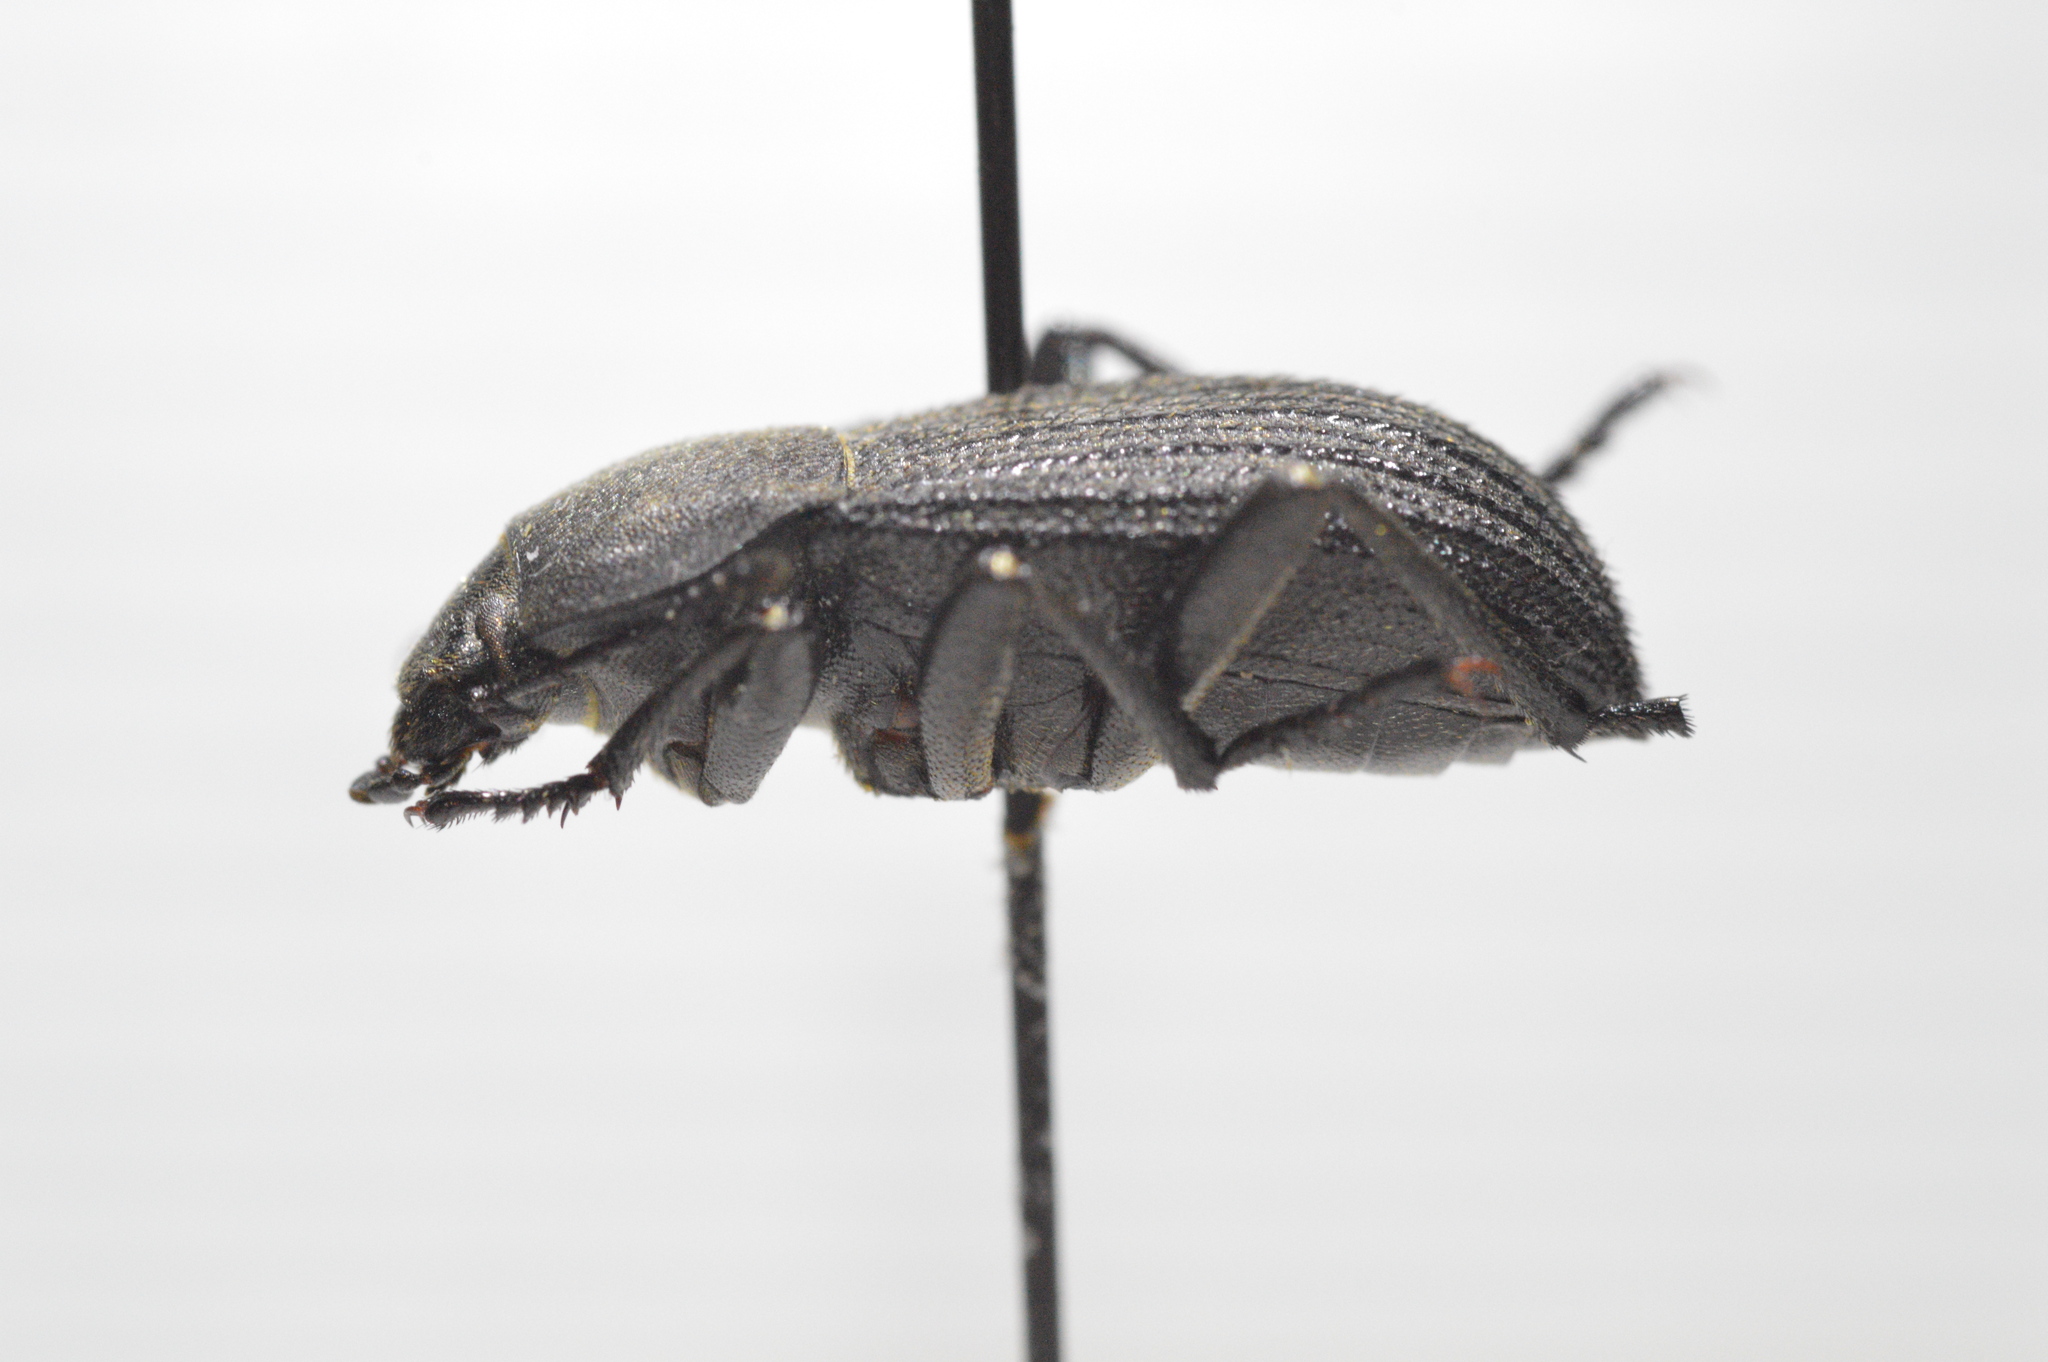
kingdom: Animalia
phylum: Arthropoda
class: Insecta
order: Coleoptera
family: Tenebrionidae
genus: Eleodes
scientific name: Eleodes tricostata
